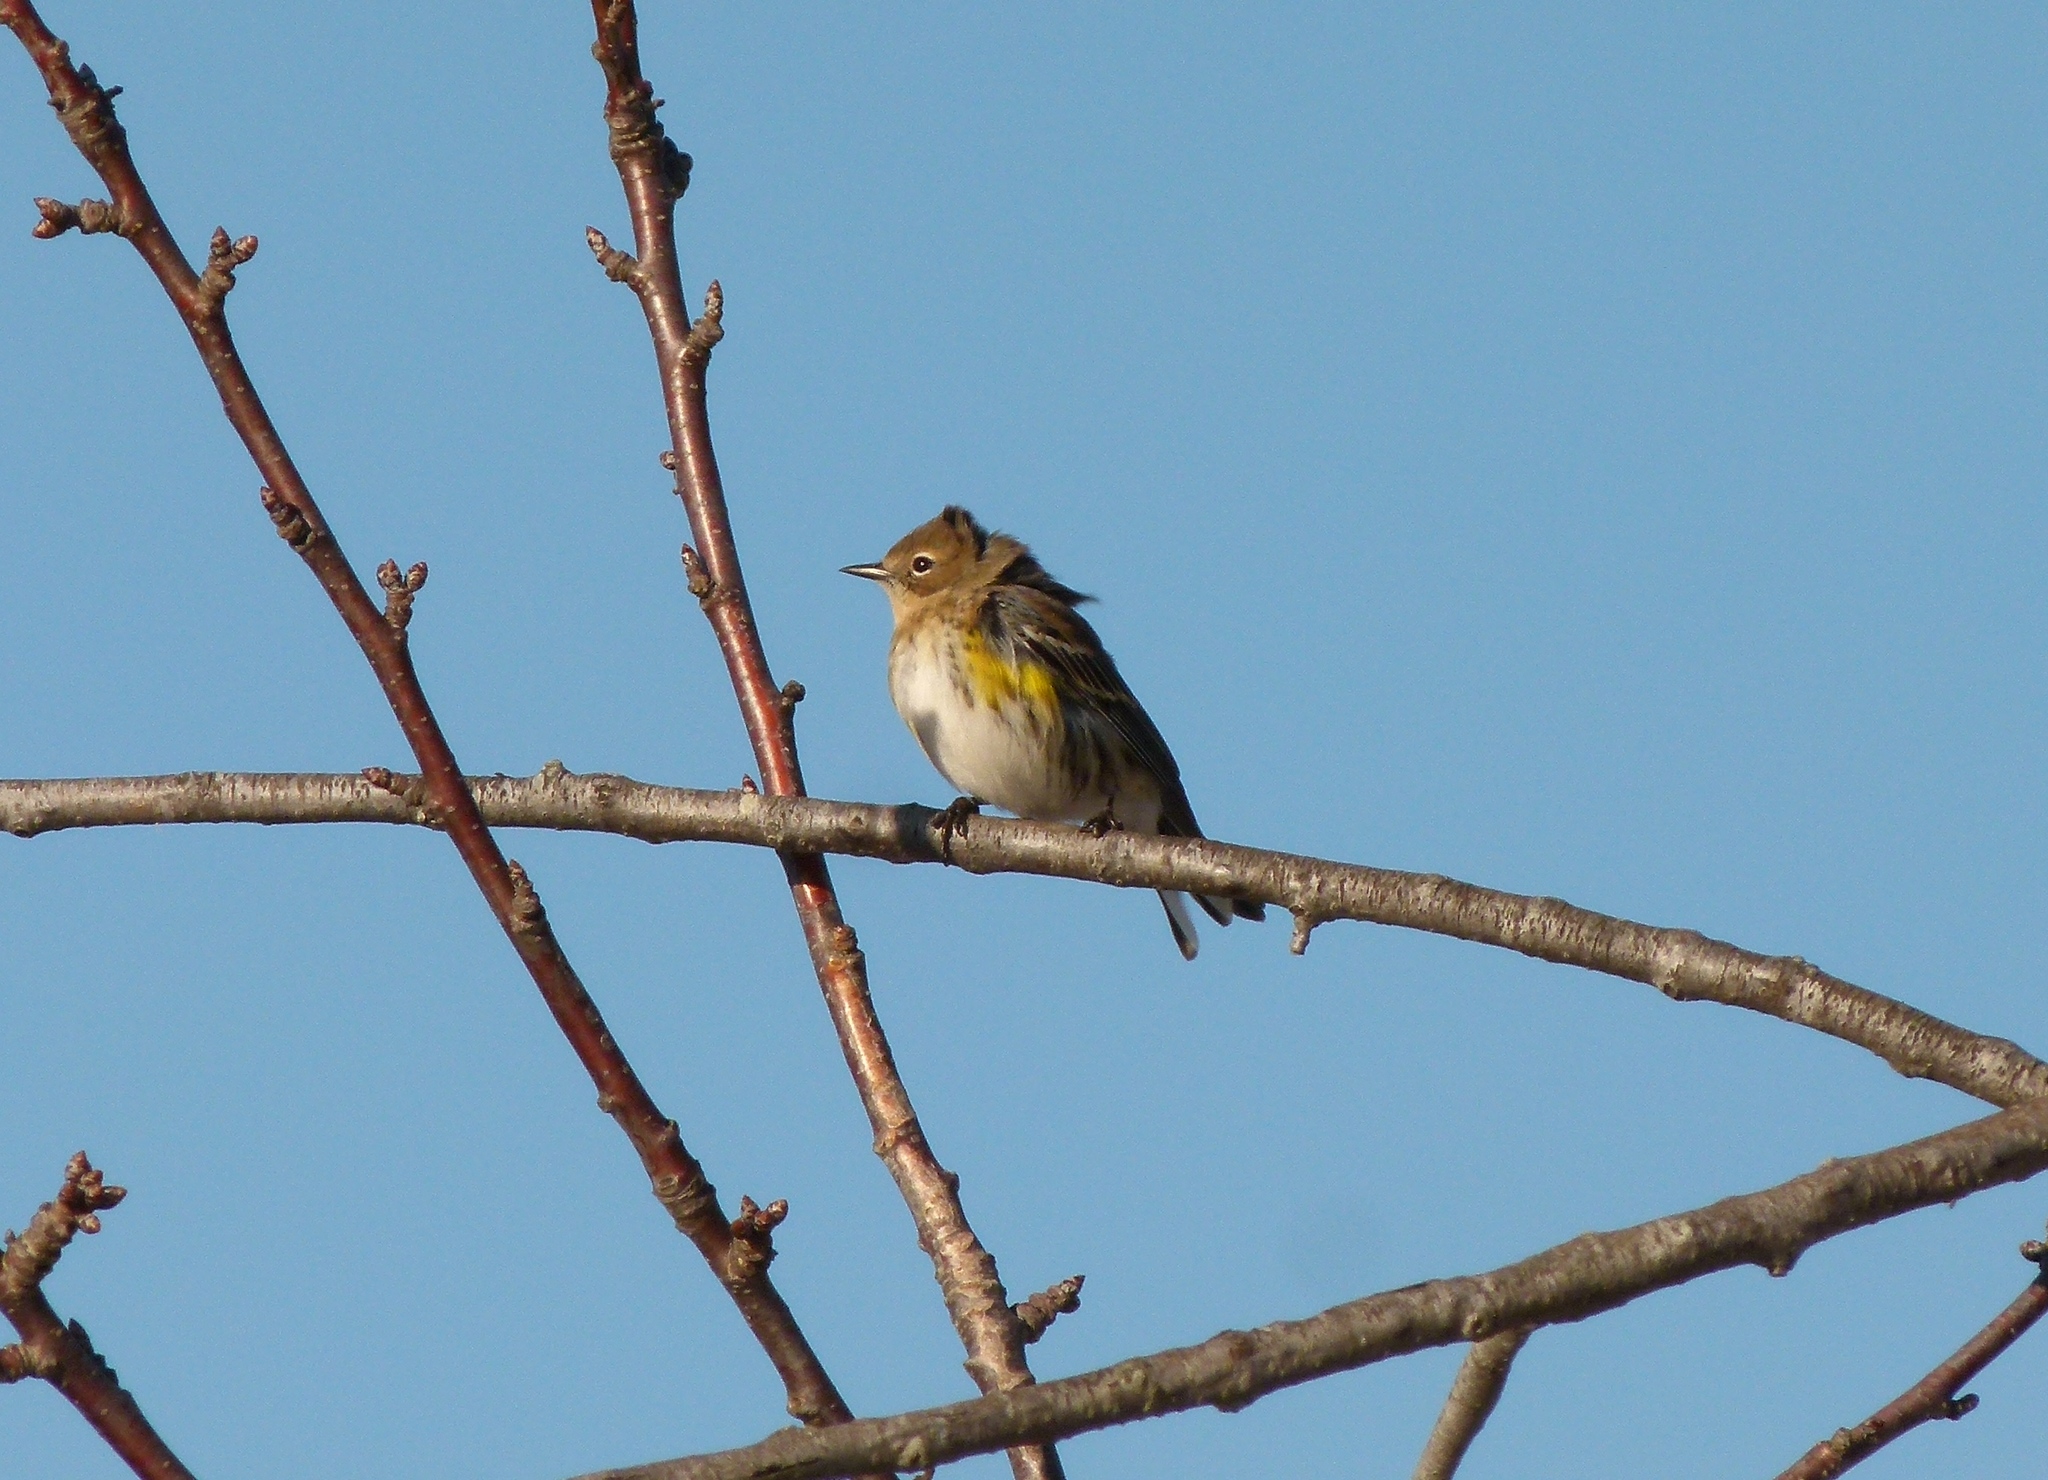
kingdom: Animalia
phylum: Chordata
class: Aves
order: Passeriformes
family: Parulidae
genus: Setophaga
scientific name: Setophaga coronata
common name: Myrtle warbler
